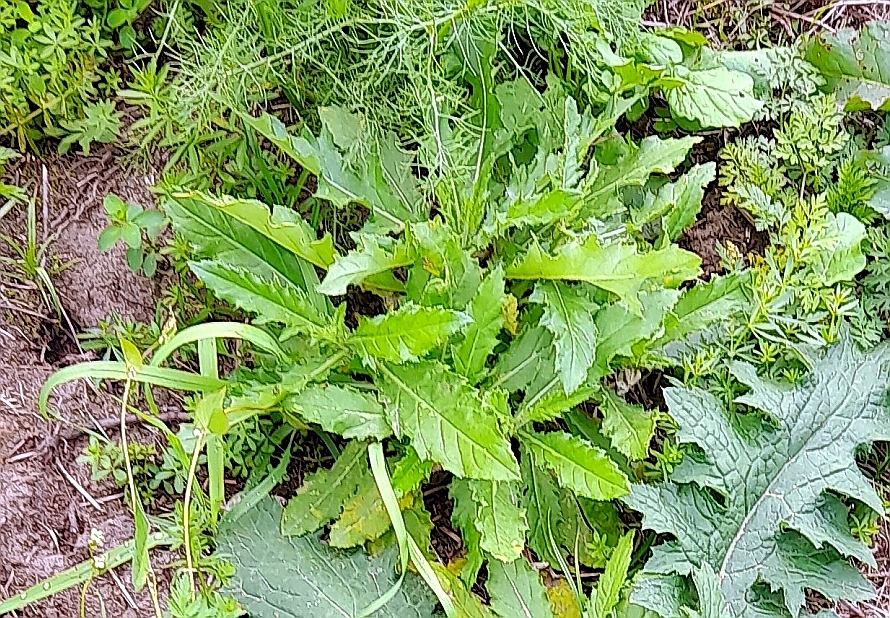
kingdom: Plantae
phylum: Tracheophyta
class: Magnoliopsida
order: Asterales
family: Asteraceae
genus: Cirsium
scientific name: Cirsium arvense
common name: Creeping thistle
